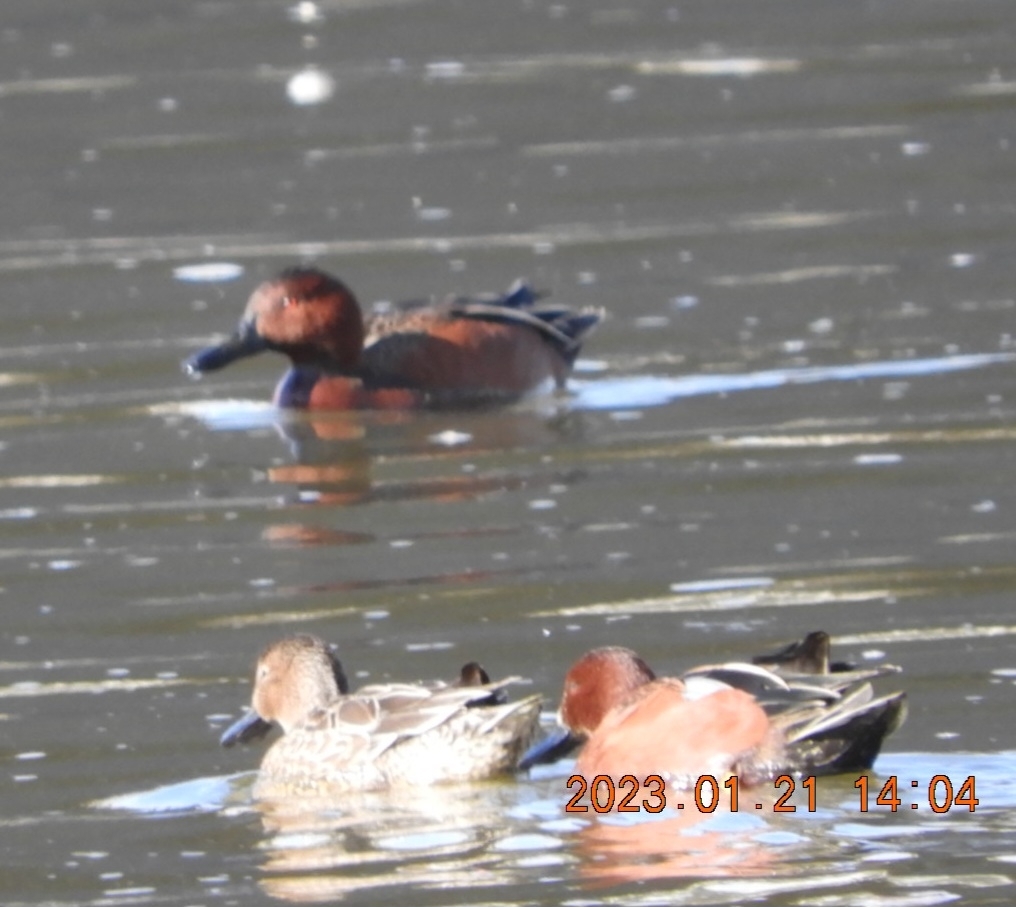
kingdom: Animalia
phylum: Chordata
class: Aves
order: Anseriformes
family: Anatidae
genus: Spatula
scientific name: Spatula cyanoptera
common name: Cinnamon teal
